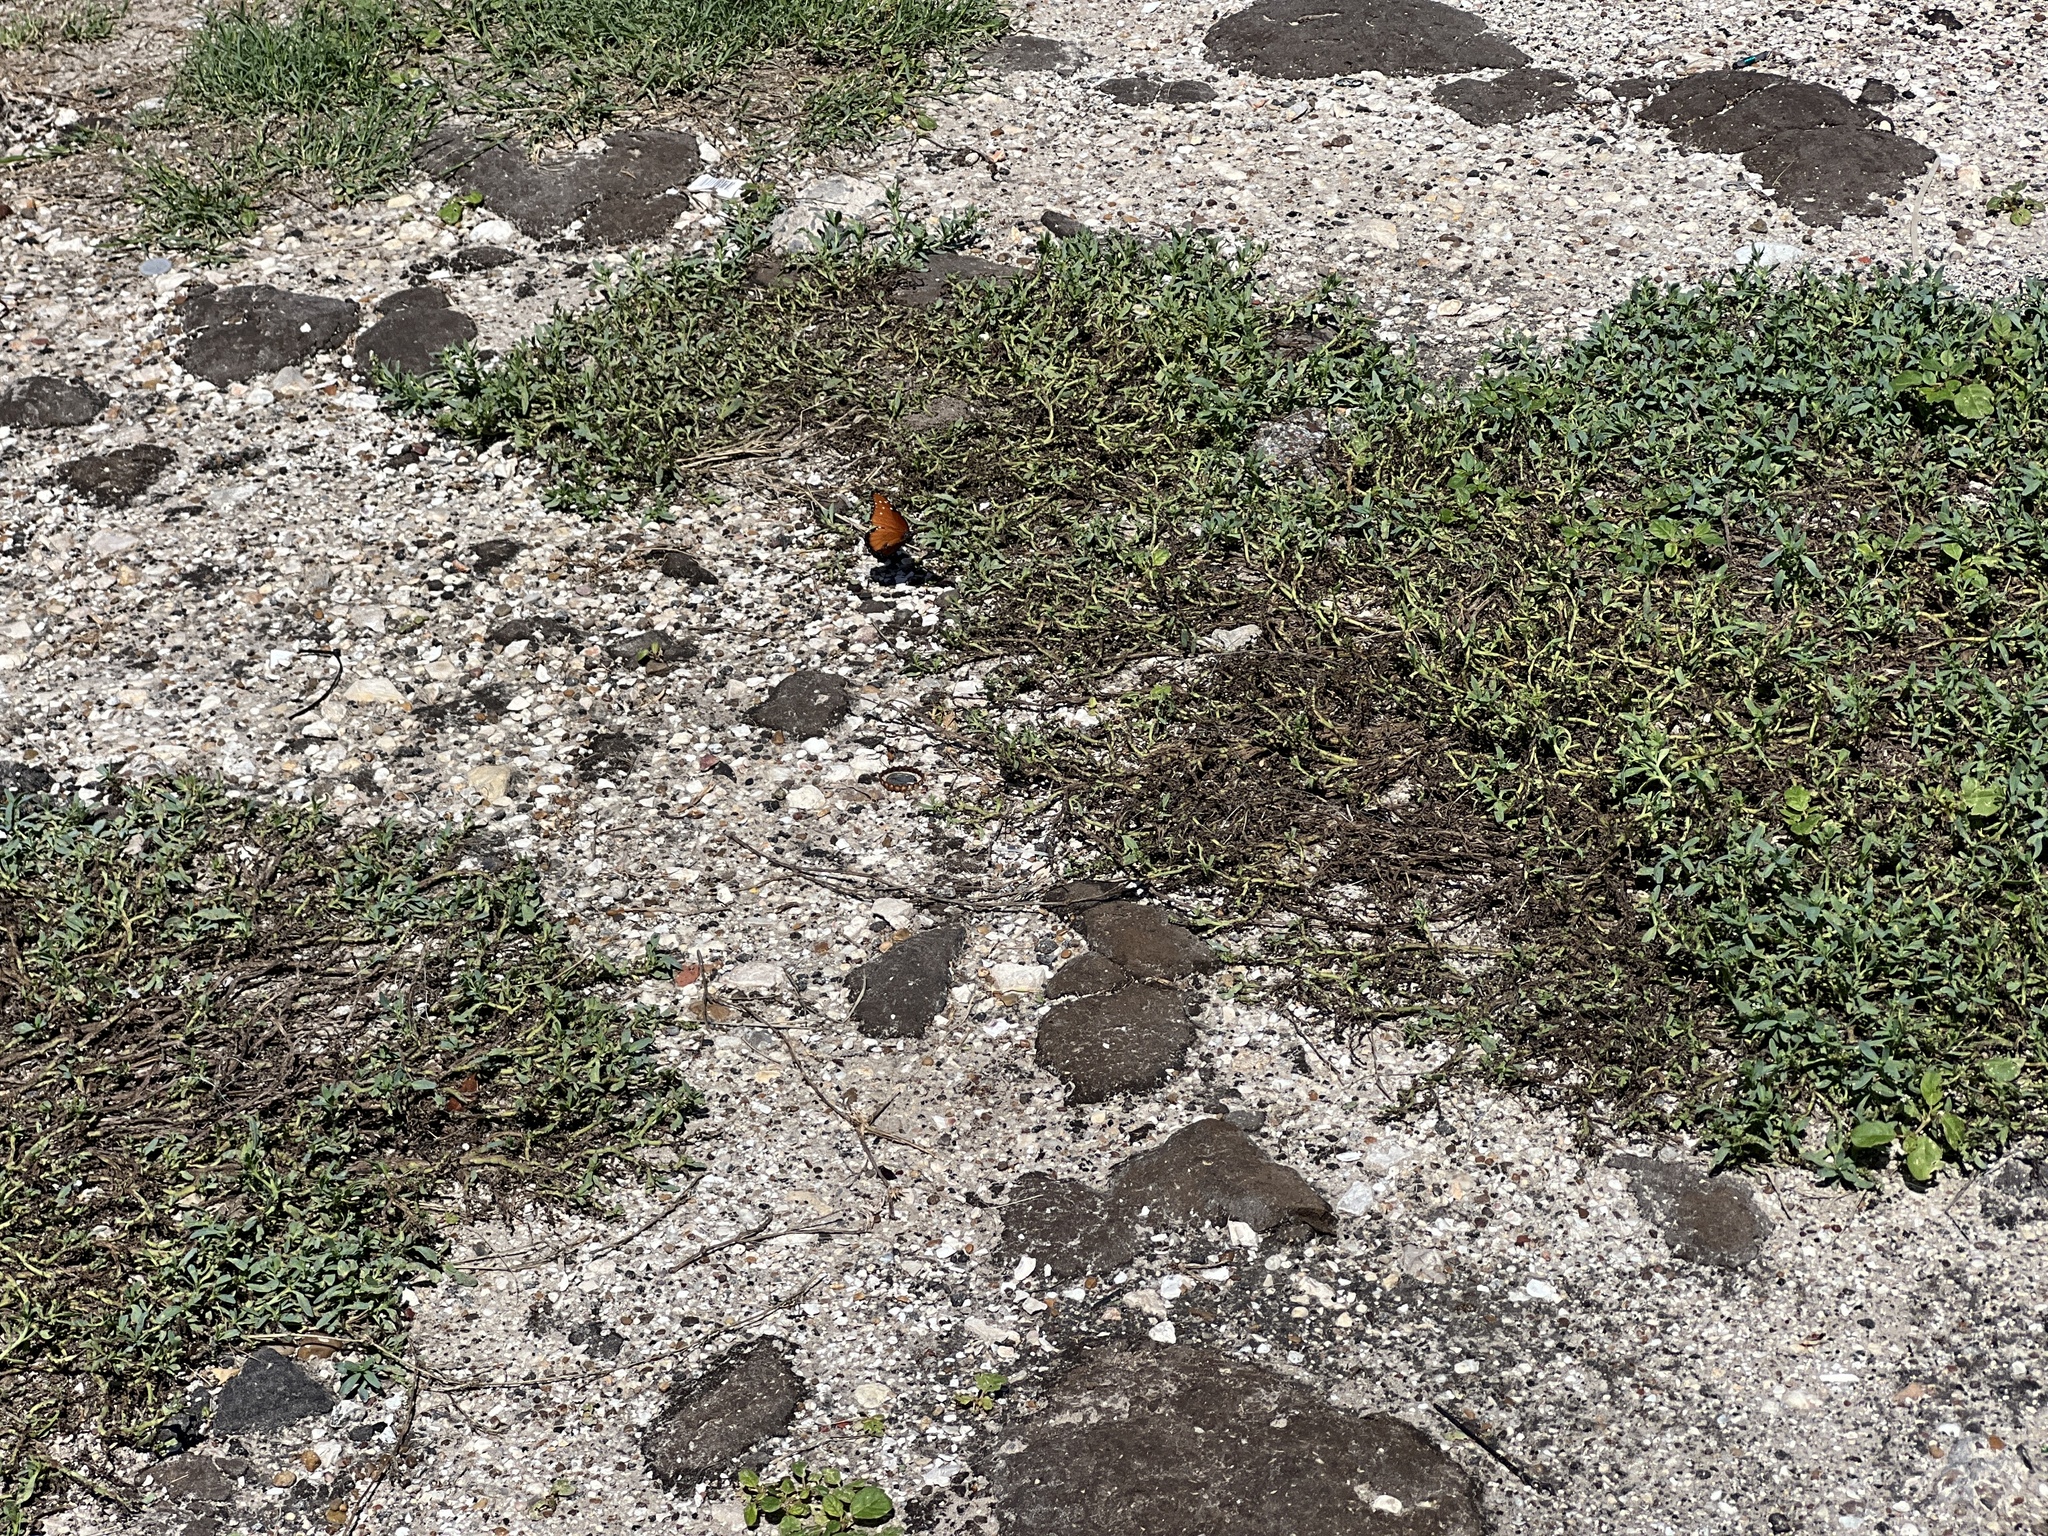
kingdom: Animalia
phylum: Arthropoda
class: Insecta
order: Lepidoptera
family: Nymphalidae
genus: Danaus
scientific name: Danaus gilippus
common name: Queen
